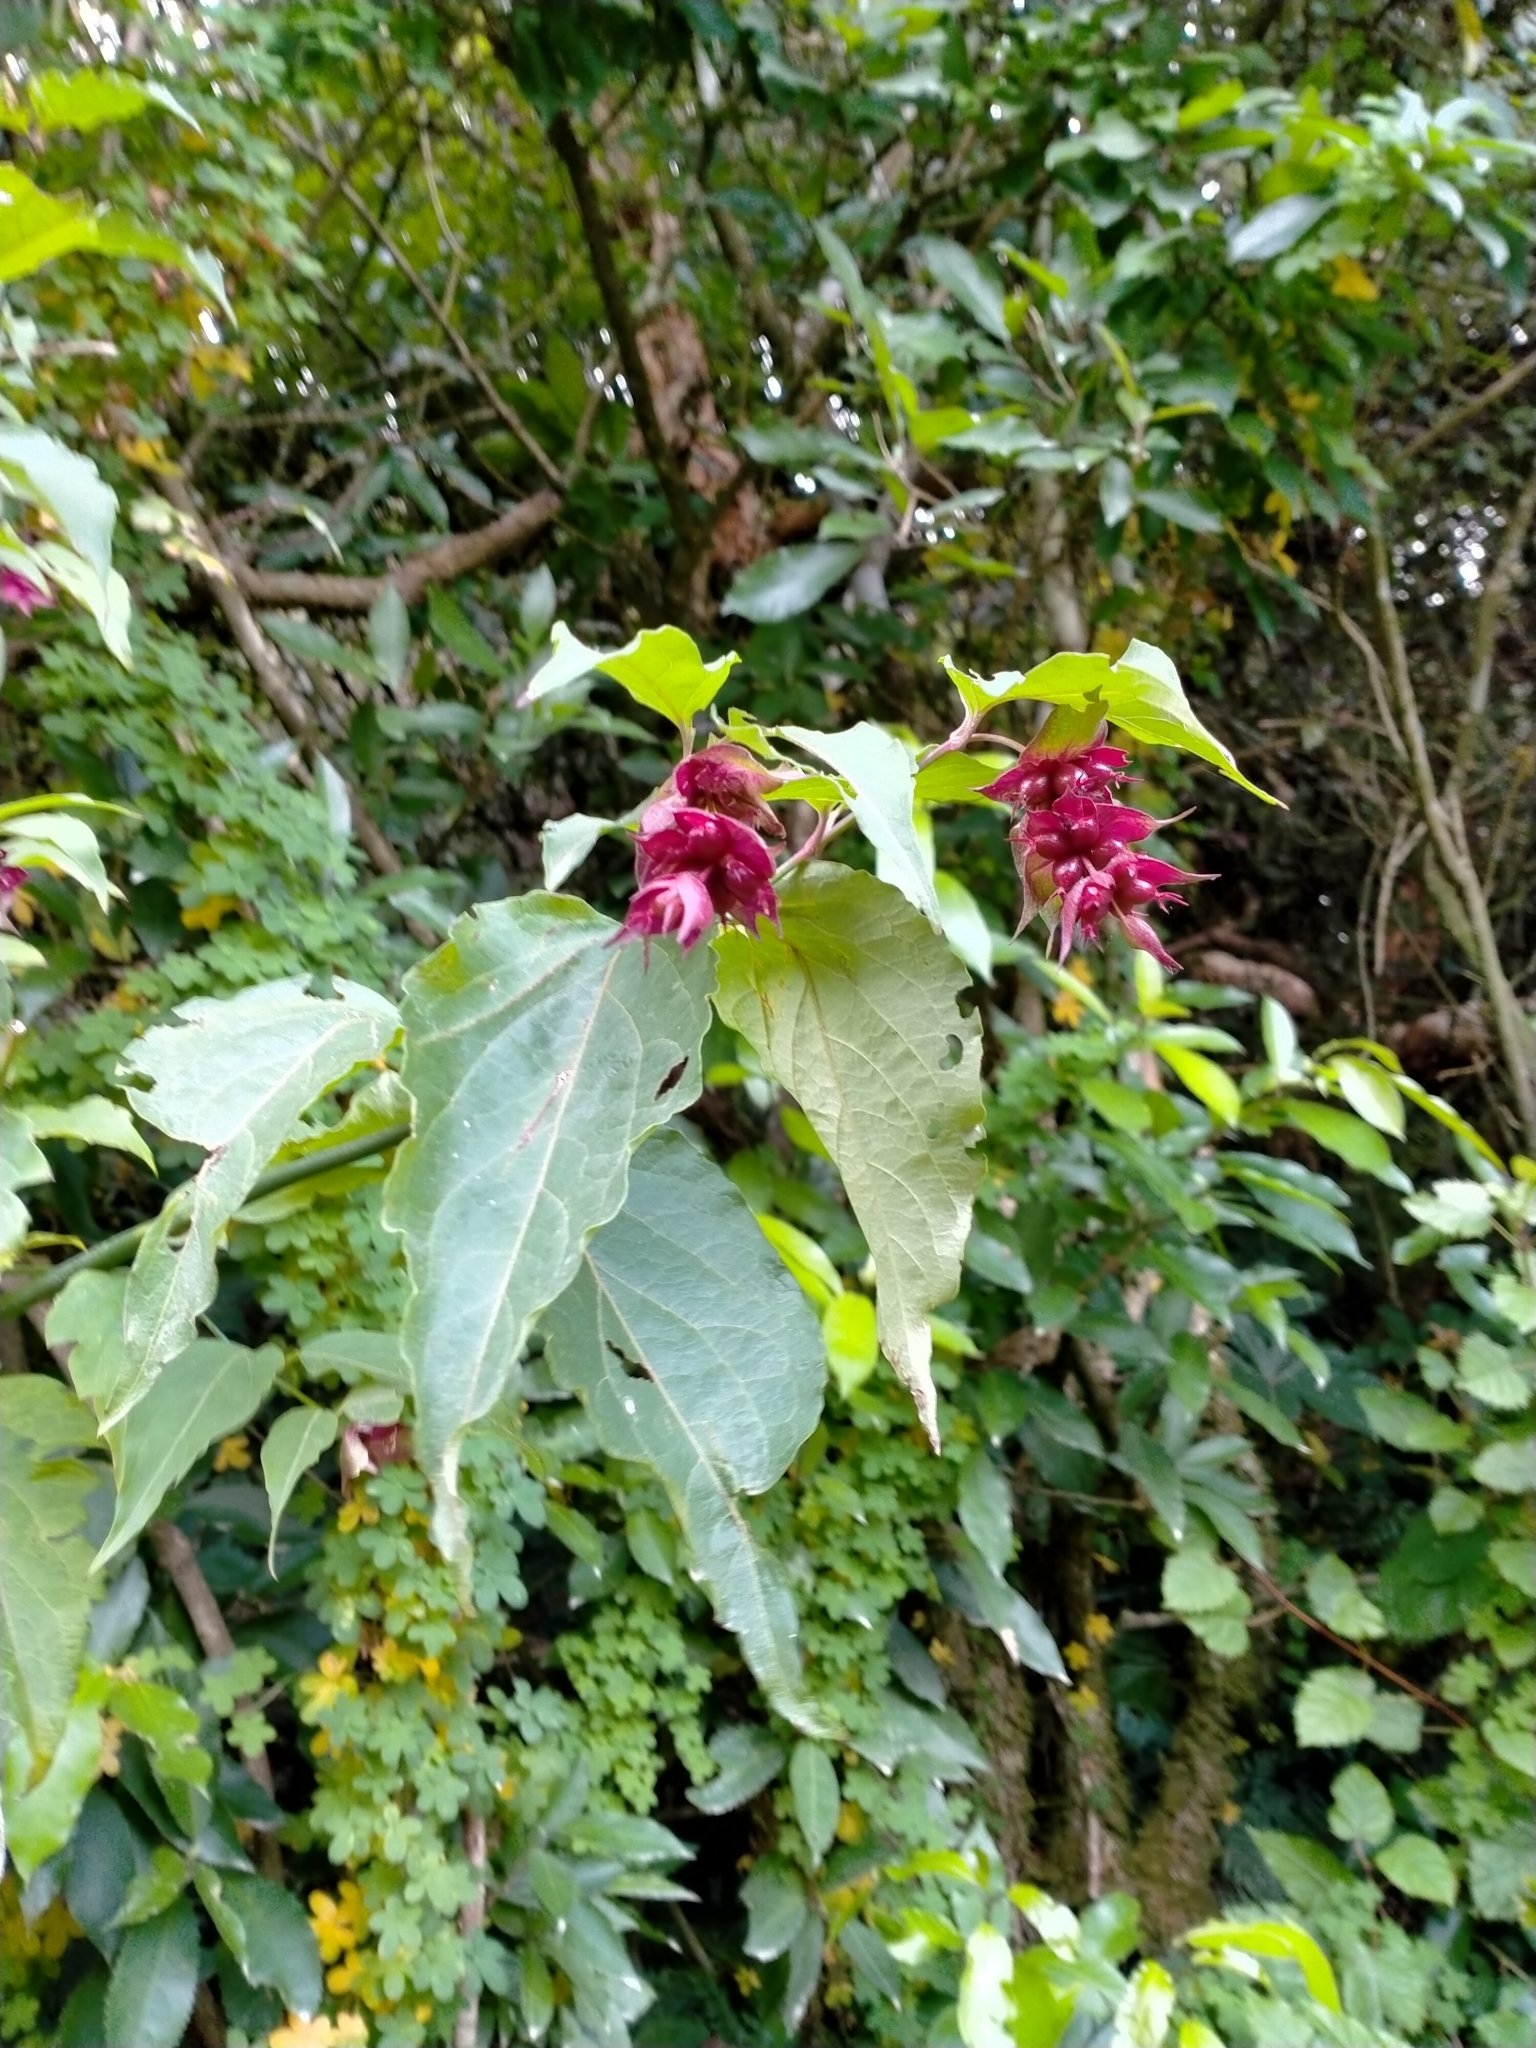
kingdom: Plantae
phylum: Tracheophyta
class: Magnoliopsida
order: Dipsacales
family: Caprifoliaceae
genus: Leycesteria
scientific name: Leycesteria formosa
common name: Himalayan honeysuckle
